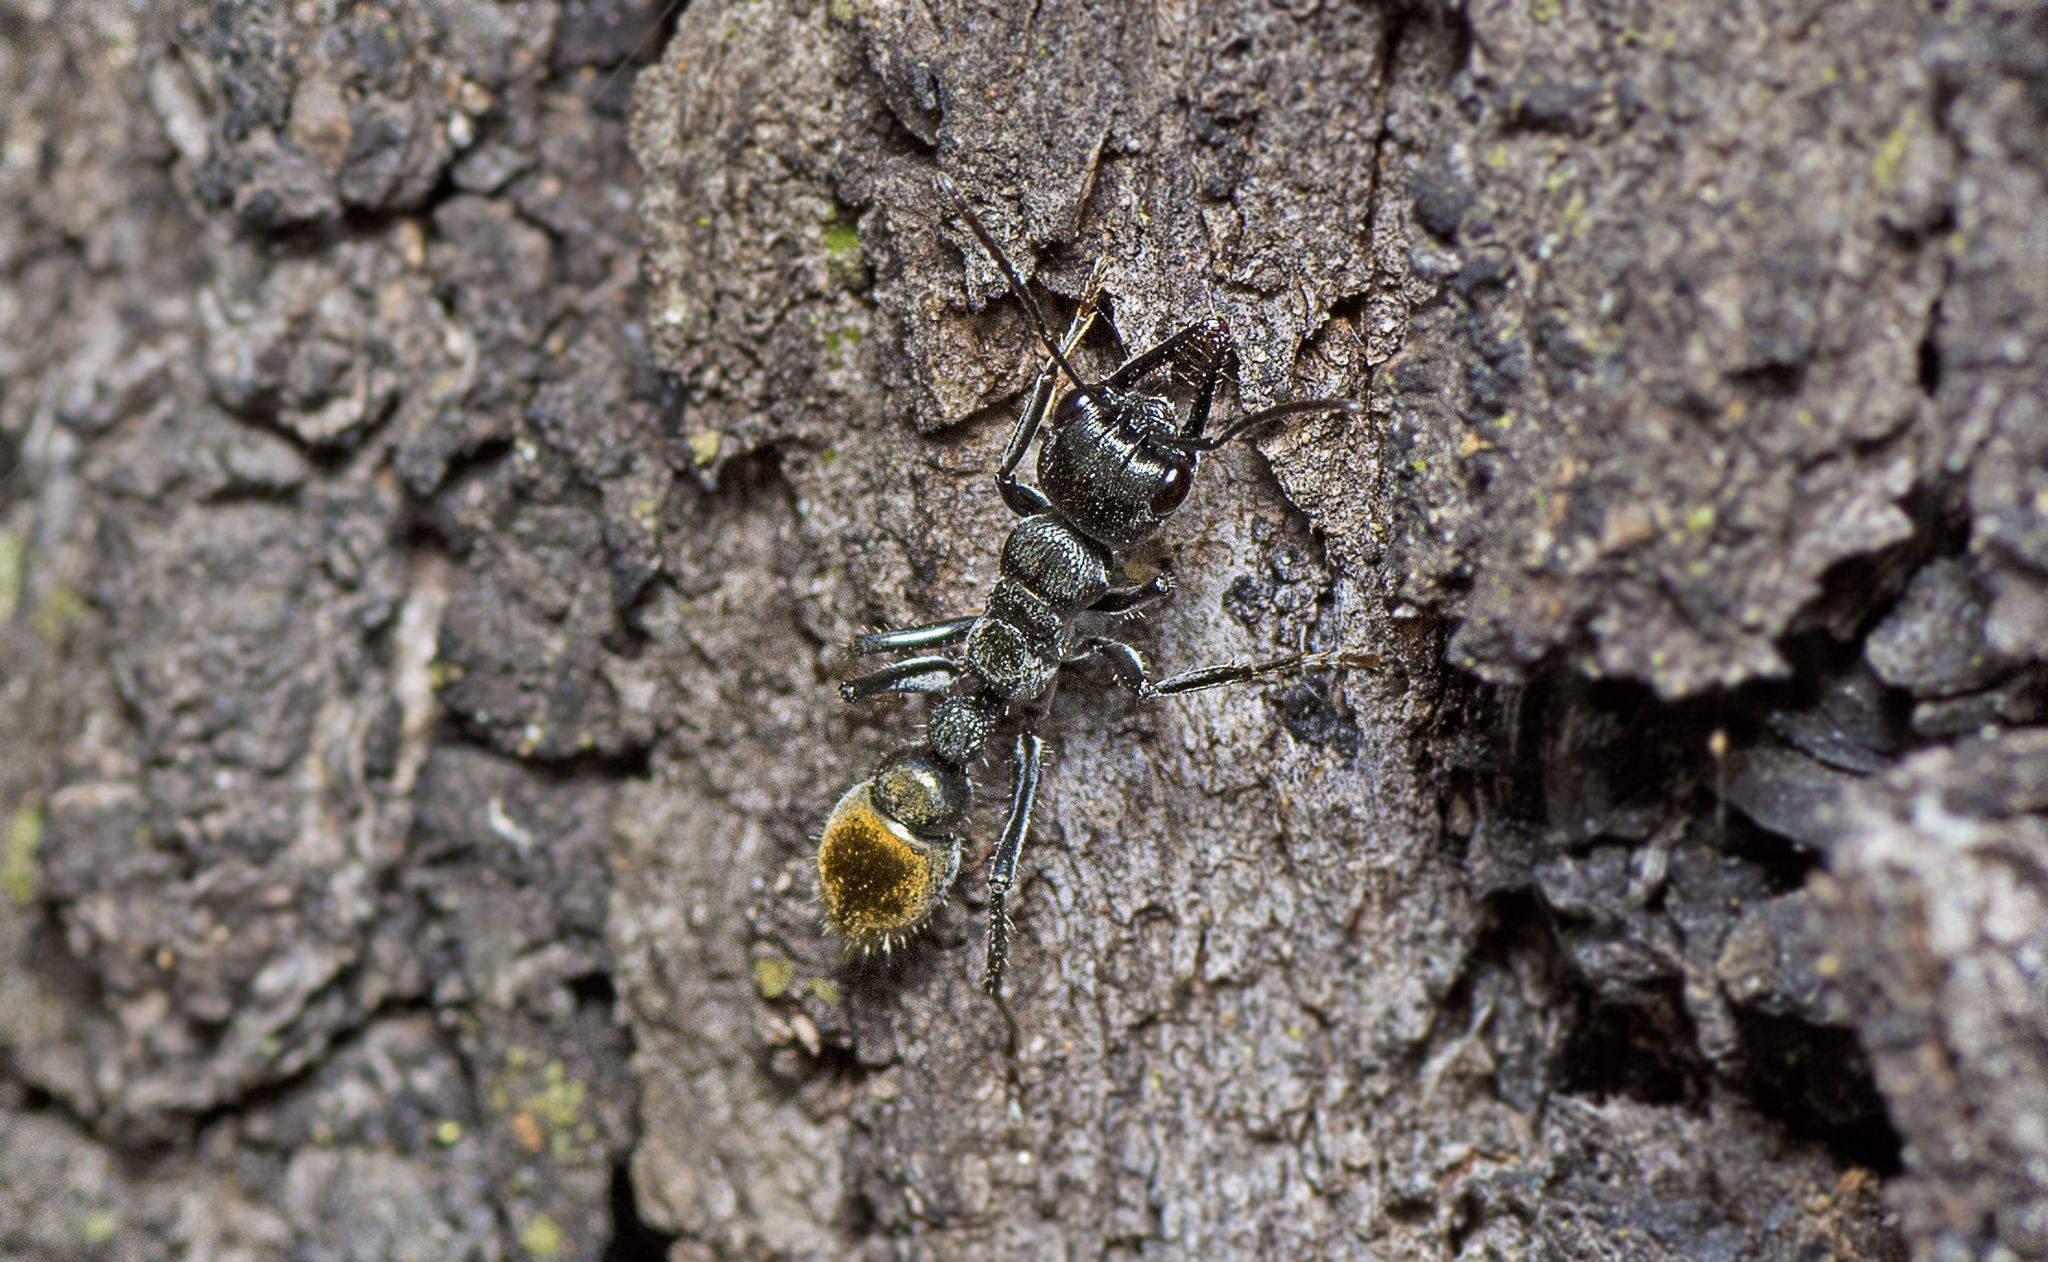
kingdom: Animalia
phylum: Arthropoda
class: Insecta
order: Hymenoptera
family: Formicidae
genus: Myrmecia
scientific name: Myrmecia gilberti
